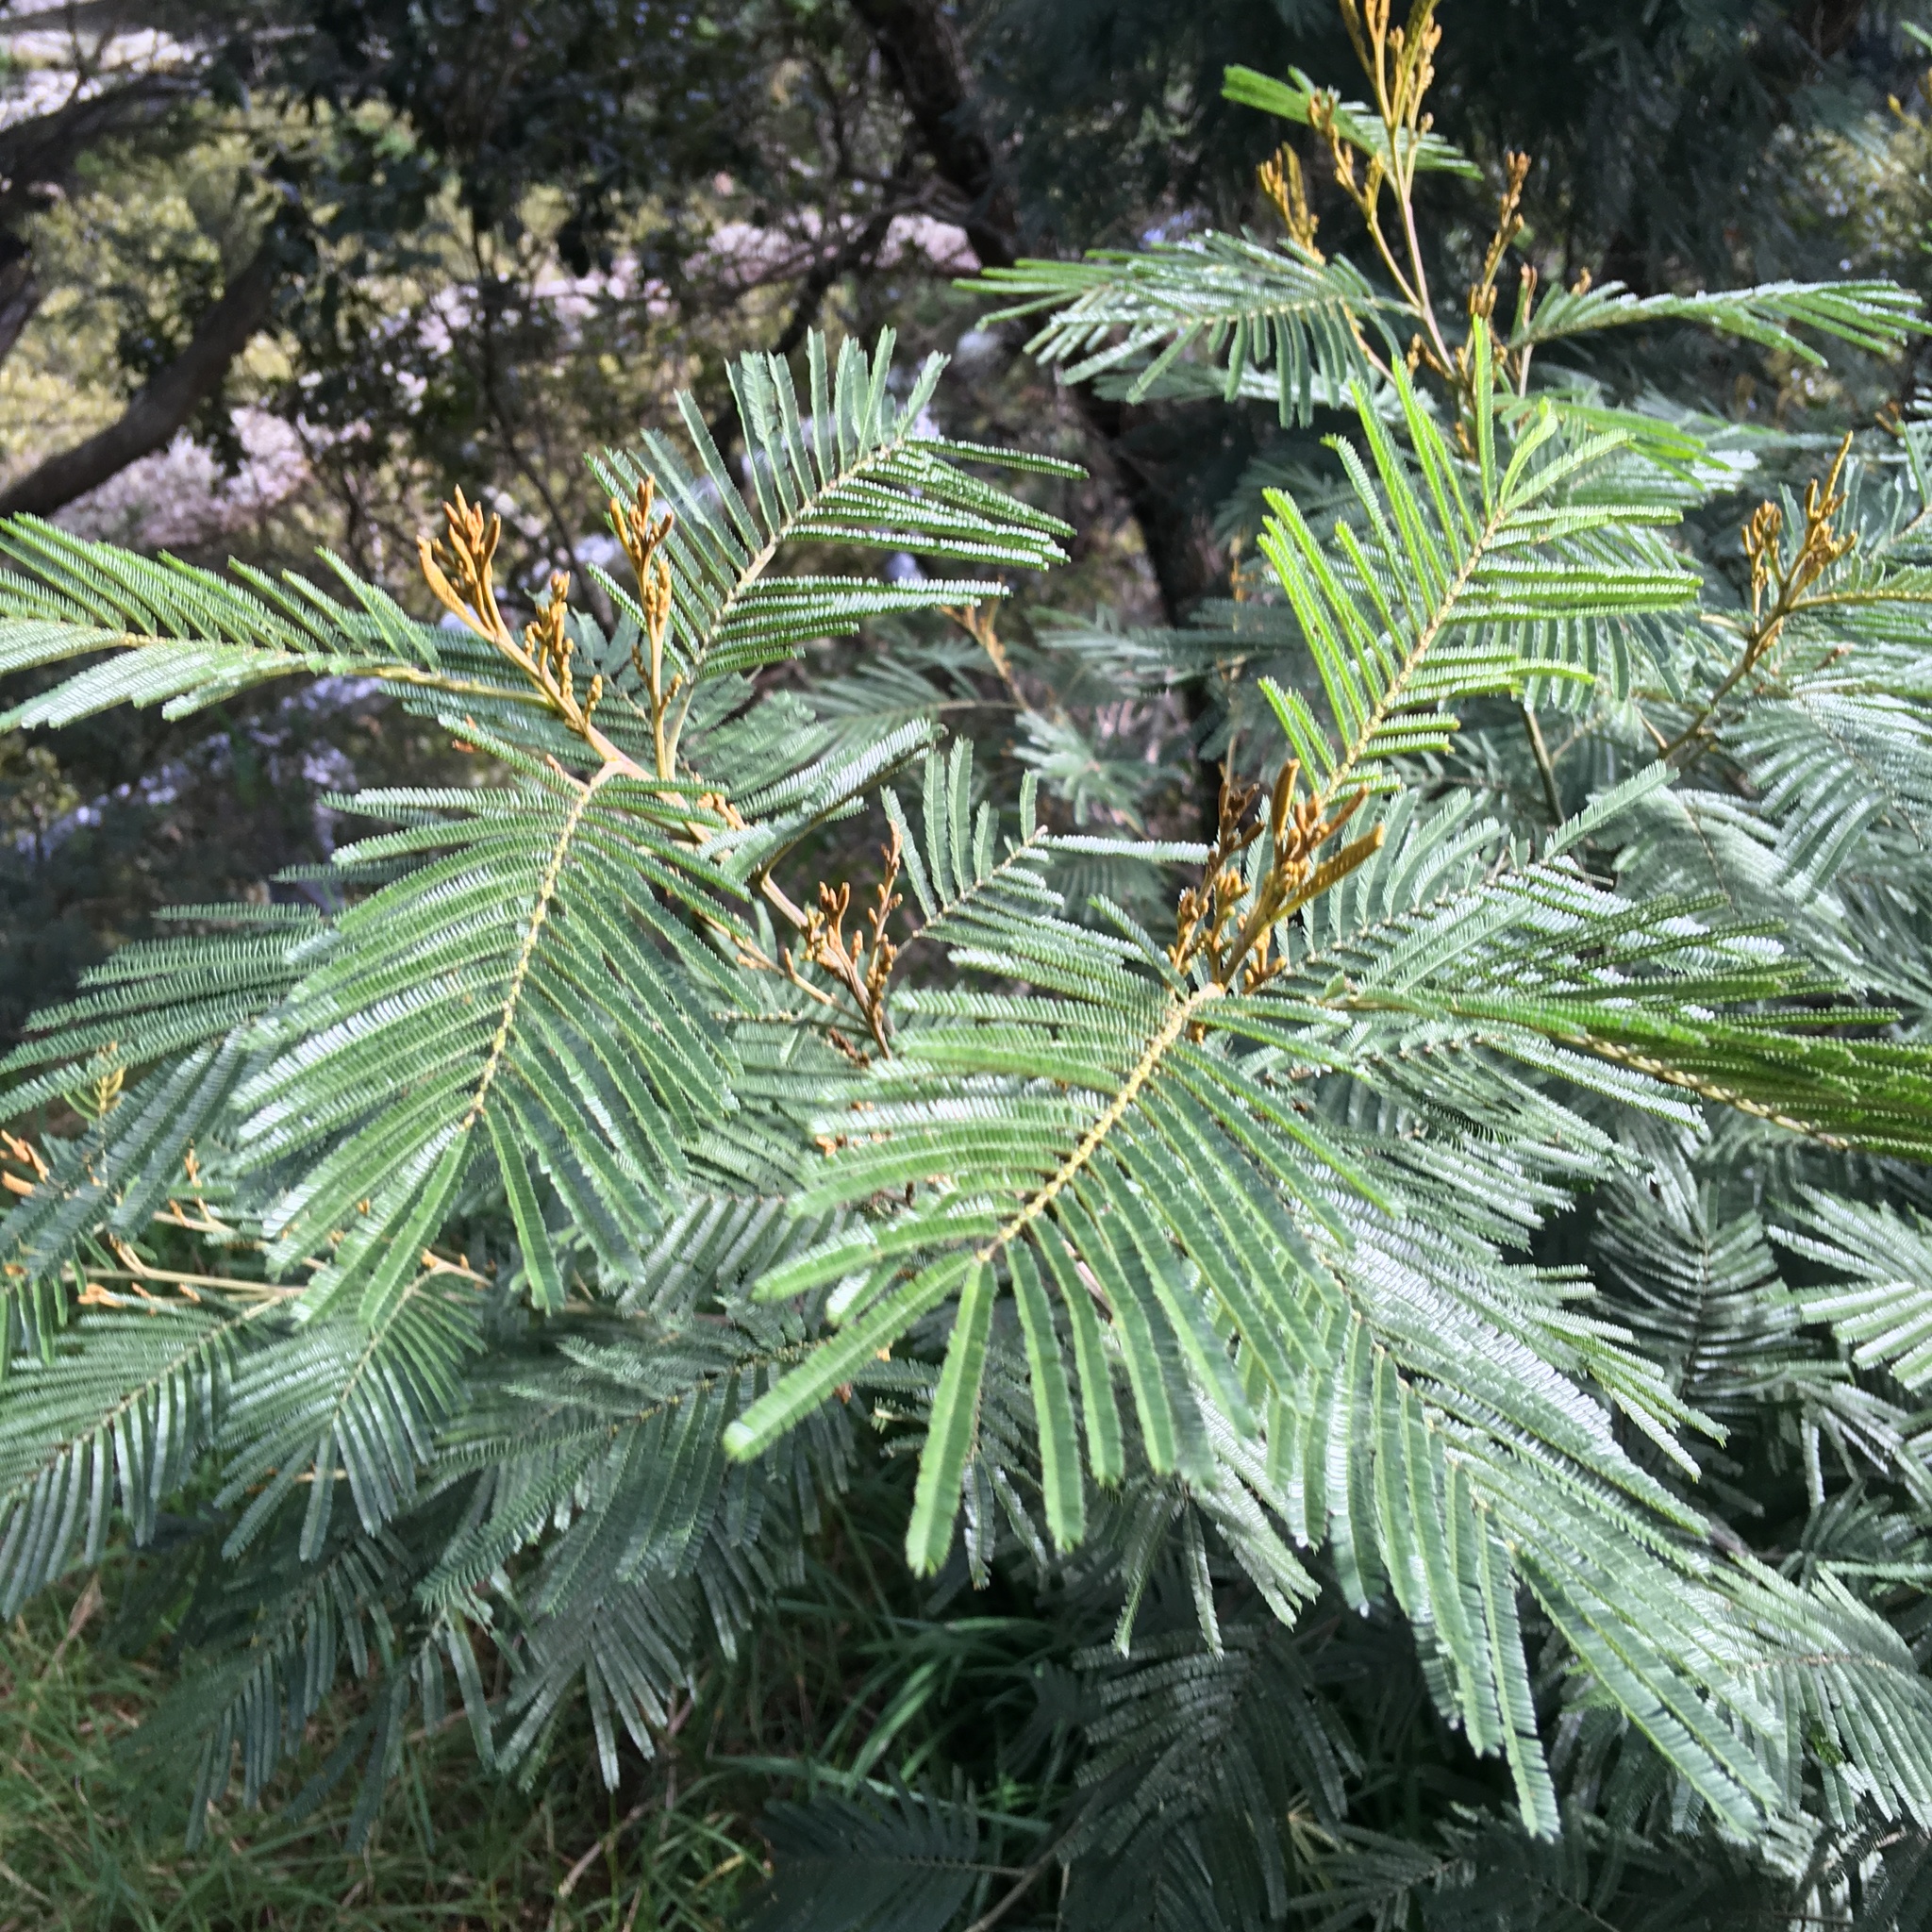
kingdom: Plantae
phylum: Tracheophyta
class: Magnoliopsida
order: Fabales
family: Fabaceae
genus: Acacia
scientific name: Acacia mearnsii
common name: Black wattle
